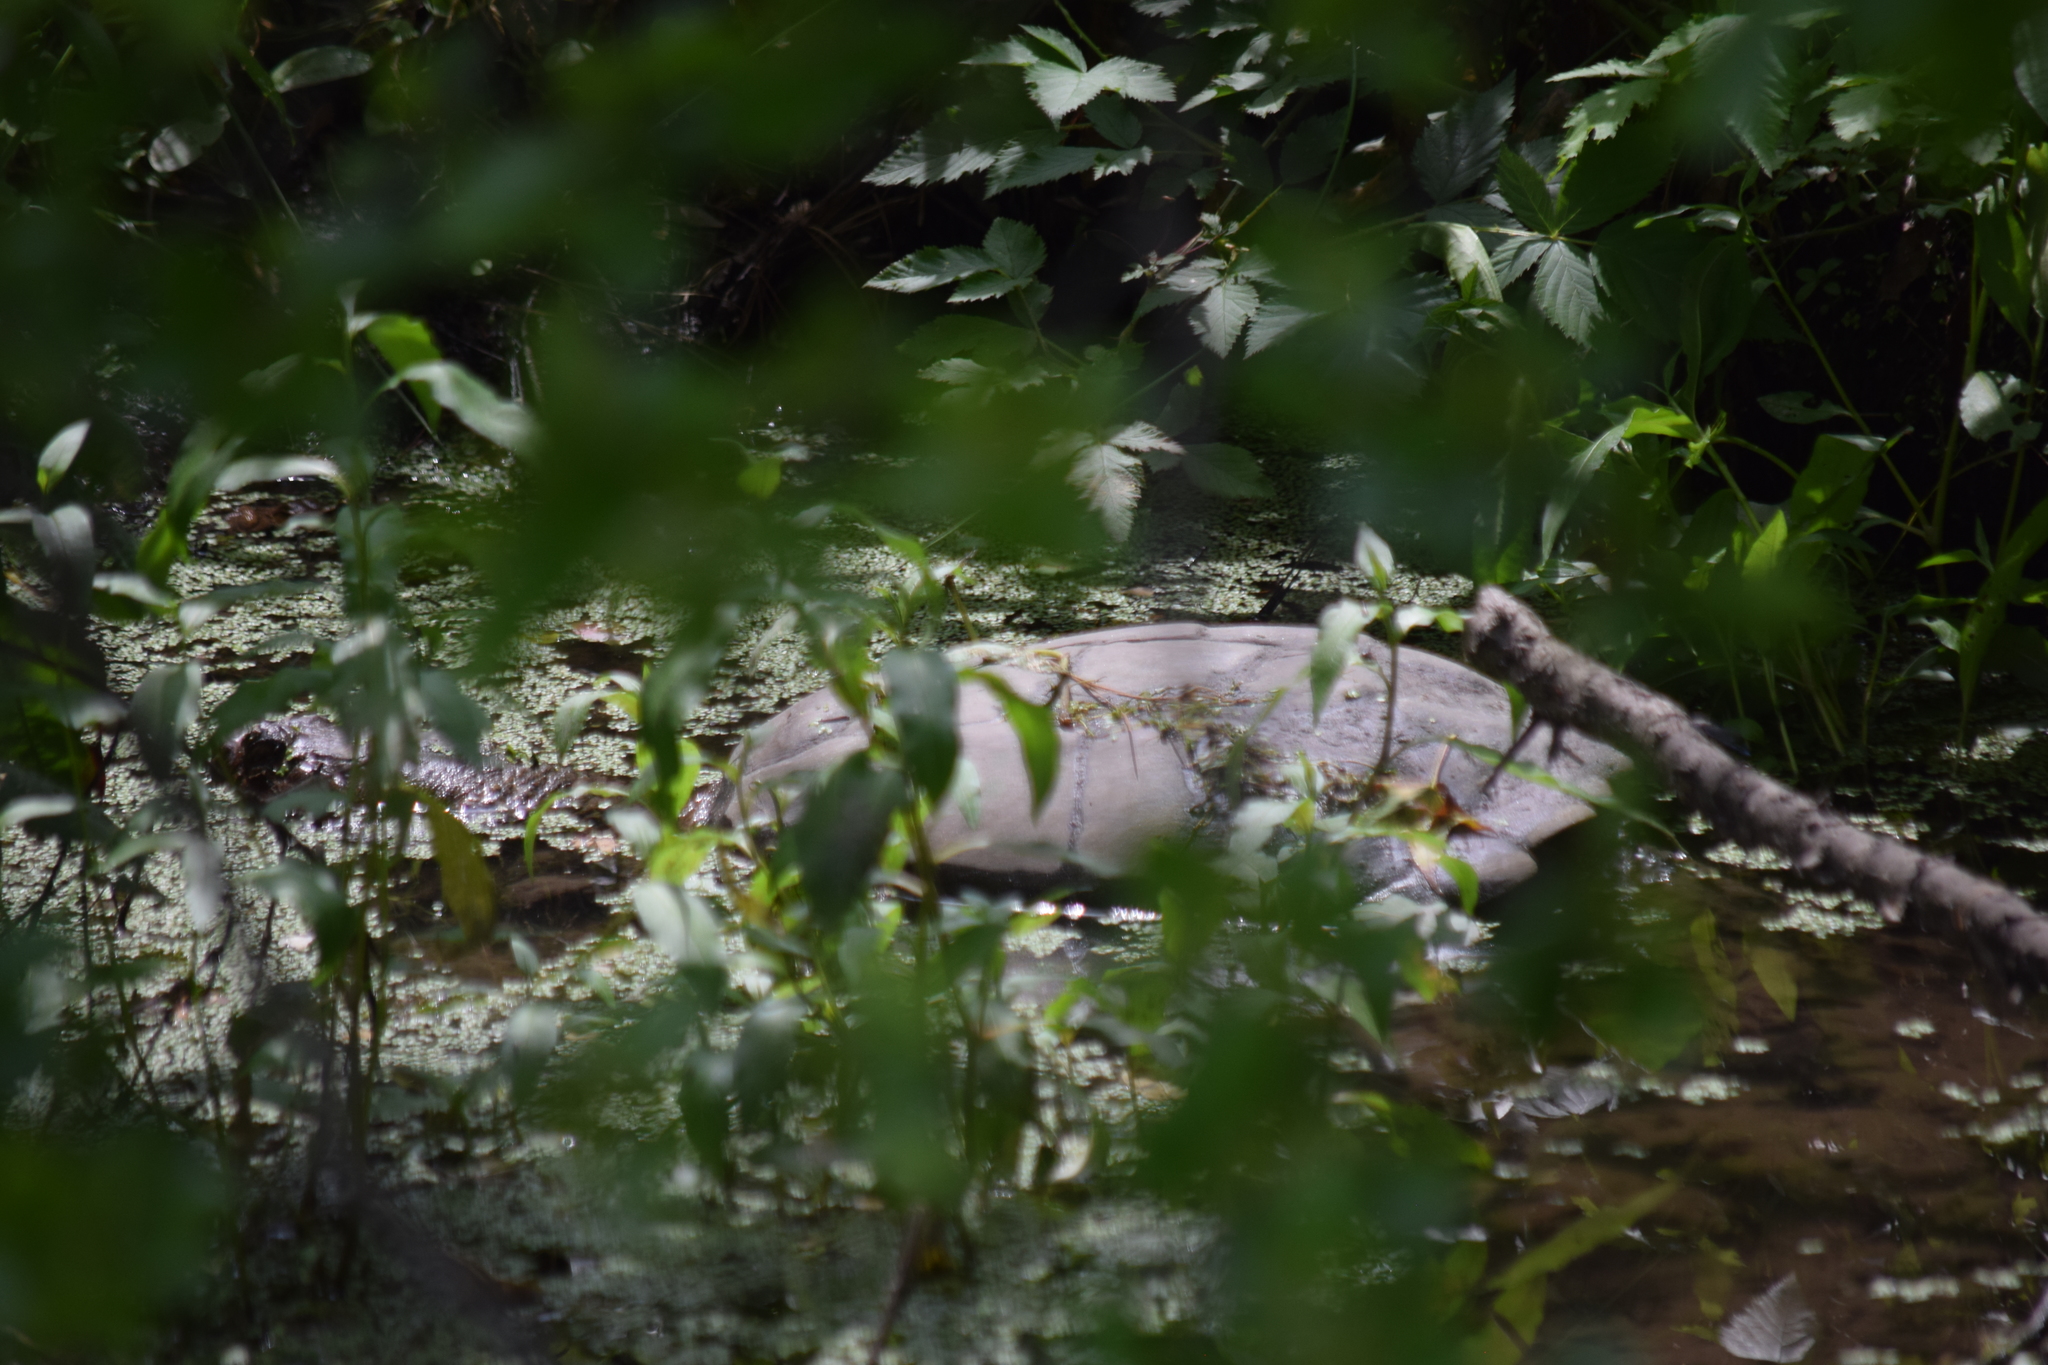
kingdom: Animalia
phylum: Chordata
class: Testudines
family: Chelydridae
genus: Chelydra
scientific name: Chelydra serpentina
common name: Common snapping turtle
